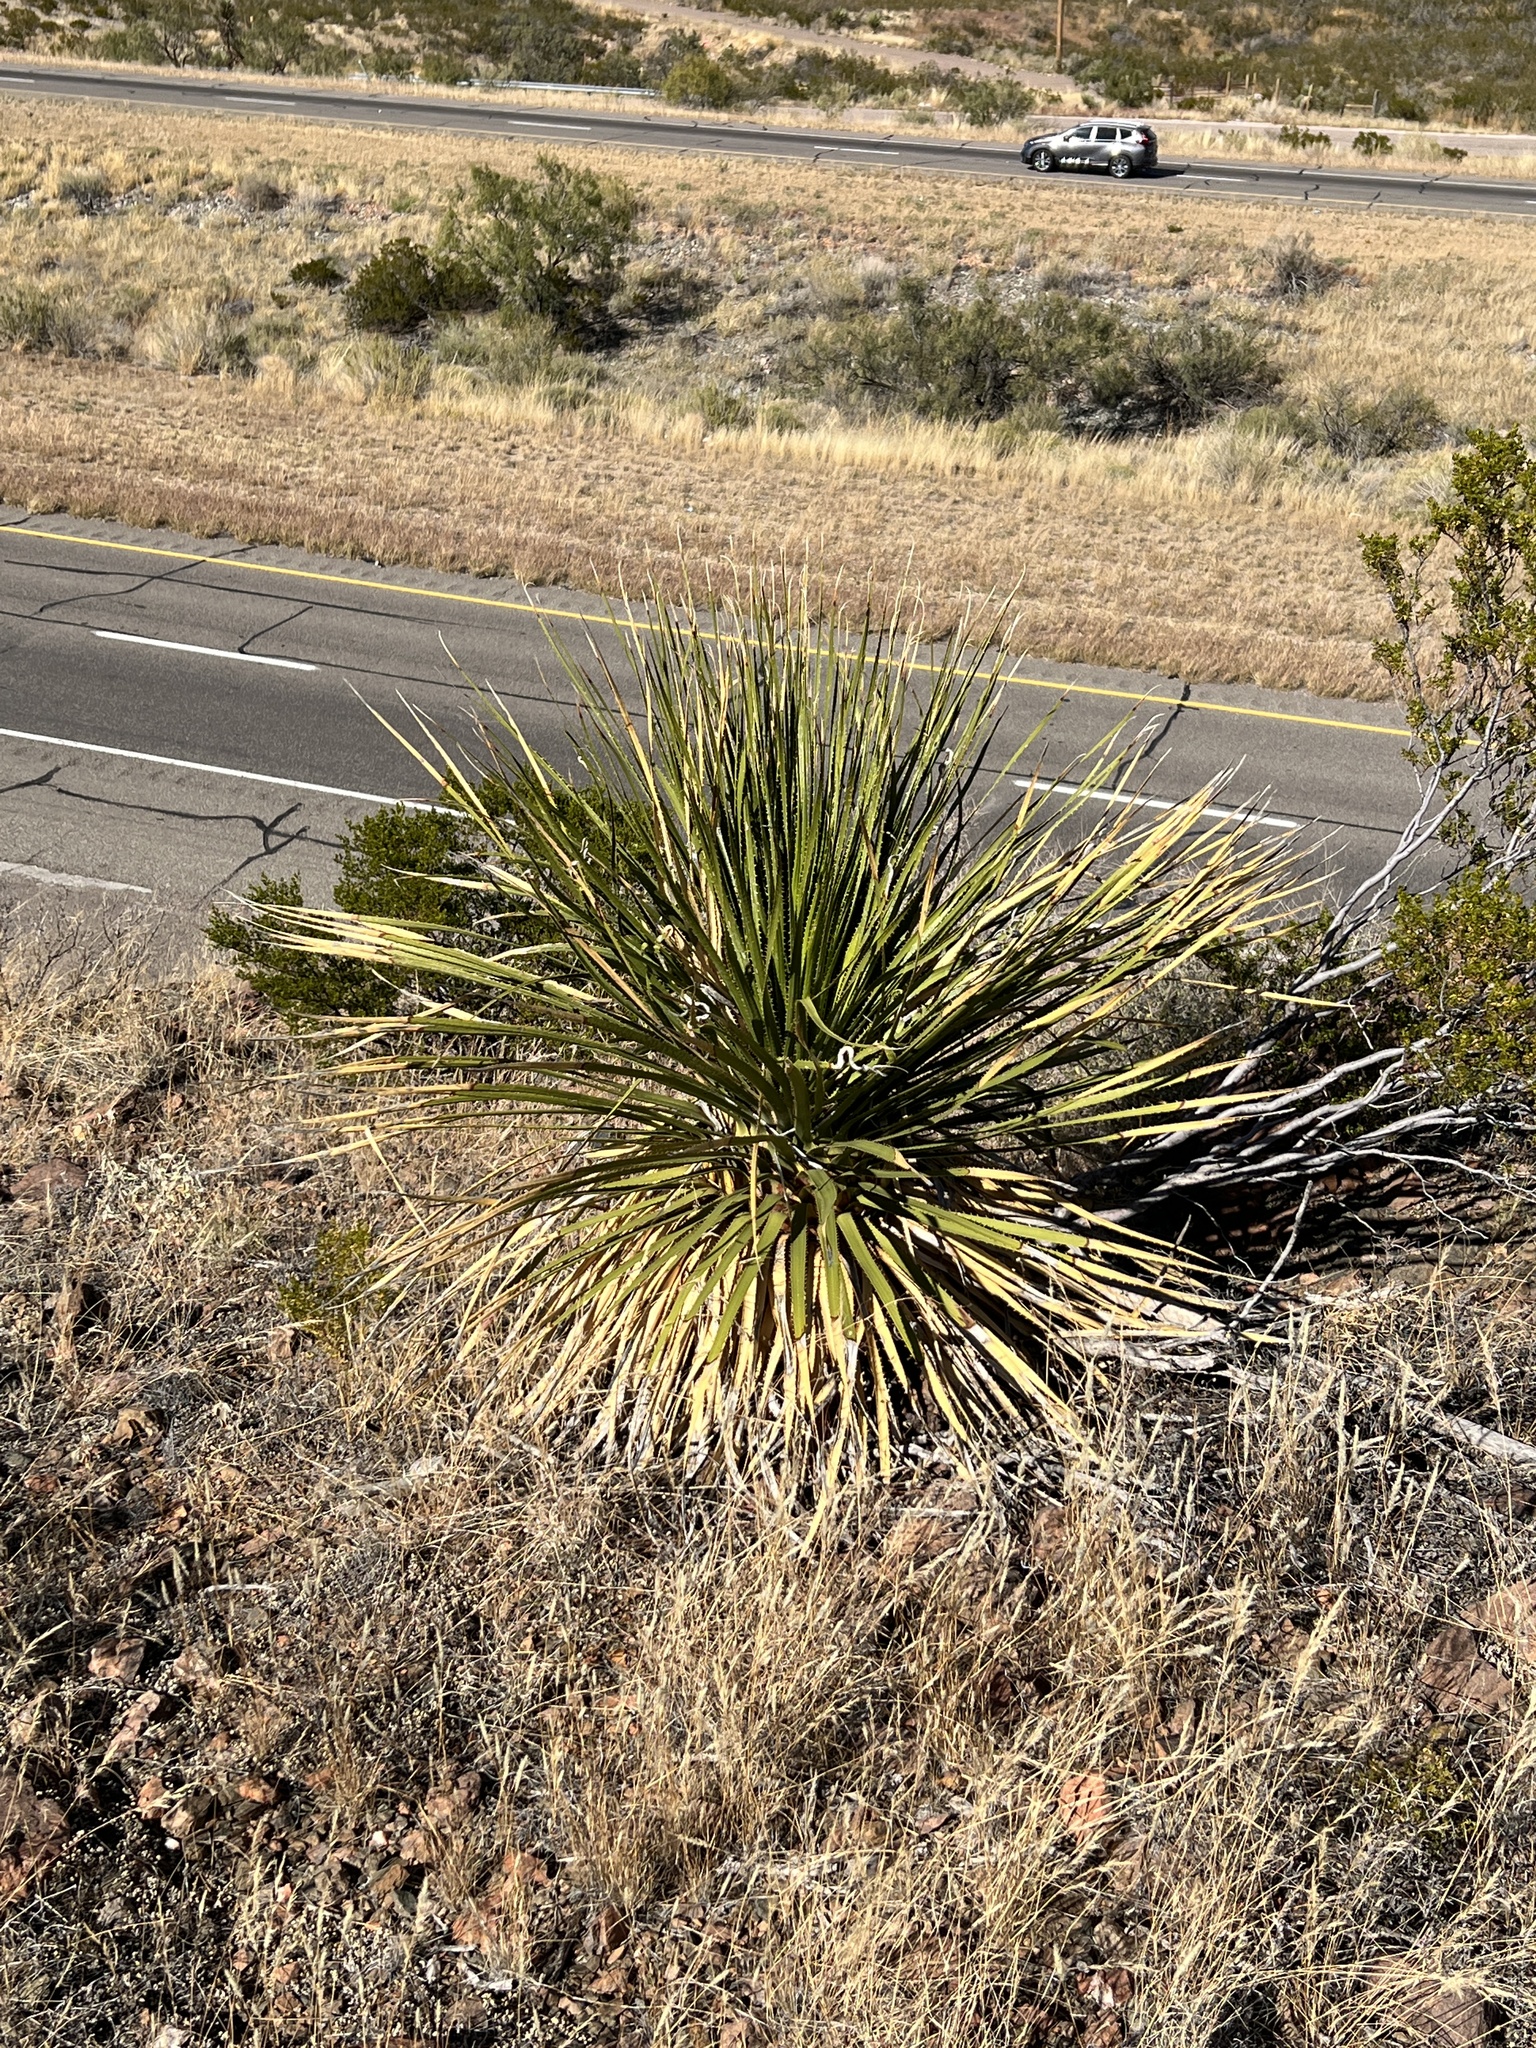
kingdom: Plantae
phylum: Tracheophyta
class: Liliopsida
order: Asparagales
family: Asparagaceae
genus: Dasylirion
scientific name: Dasylirion leiophyllum
